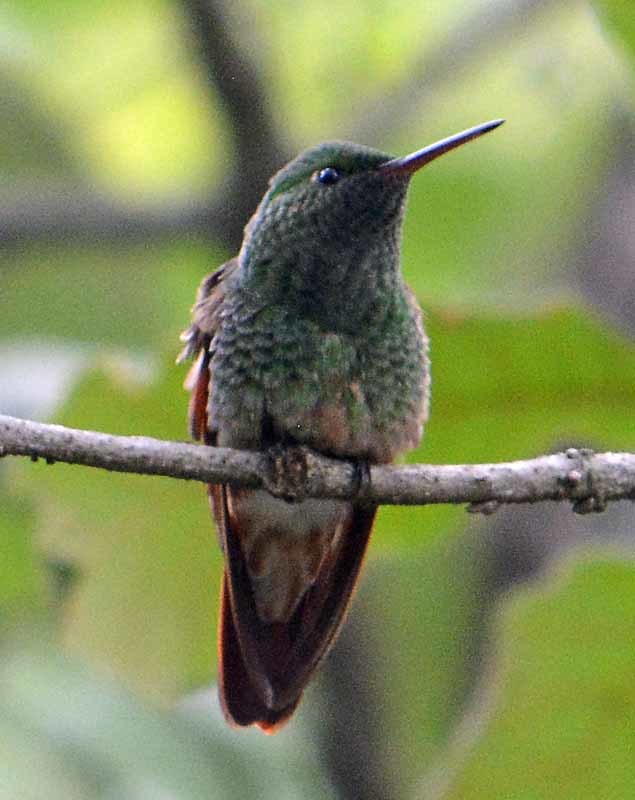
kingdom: Animalia
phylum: Chordata
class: Aves
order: Apodiformes
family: Trochilidae
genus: Saucerottia
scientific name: Saucerottia beryllina
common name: Berylline hummingbird
